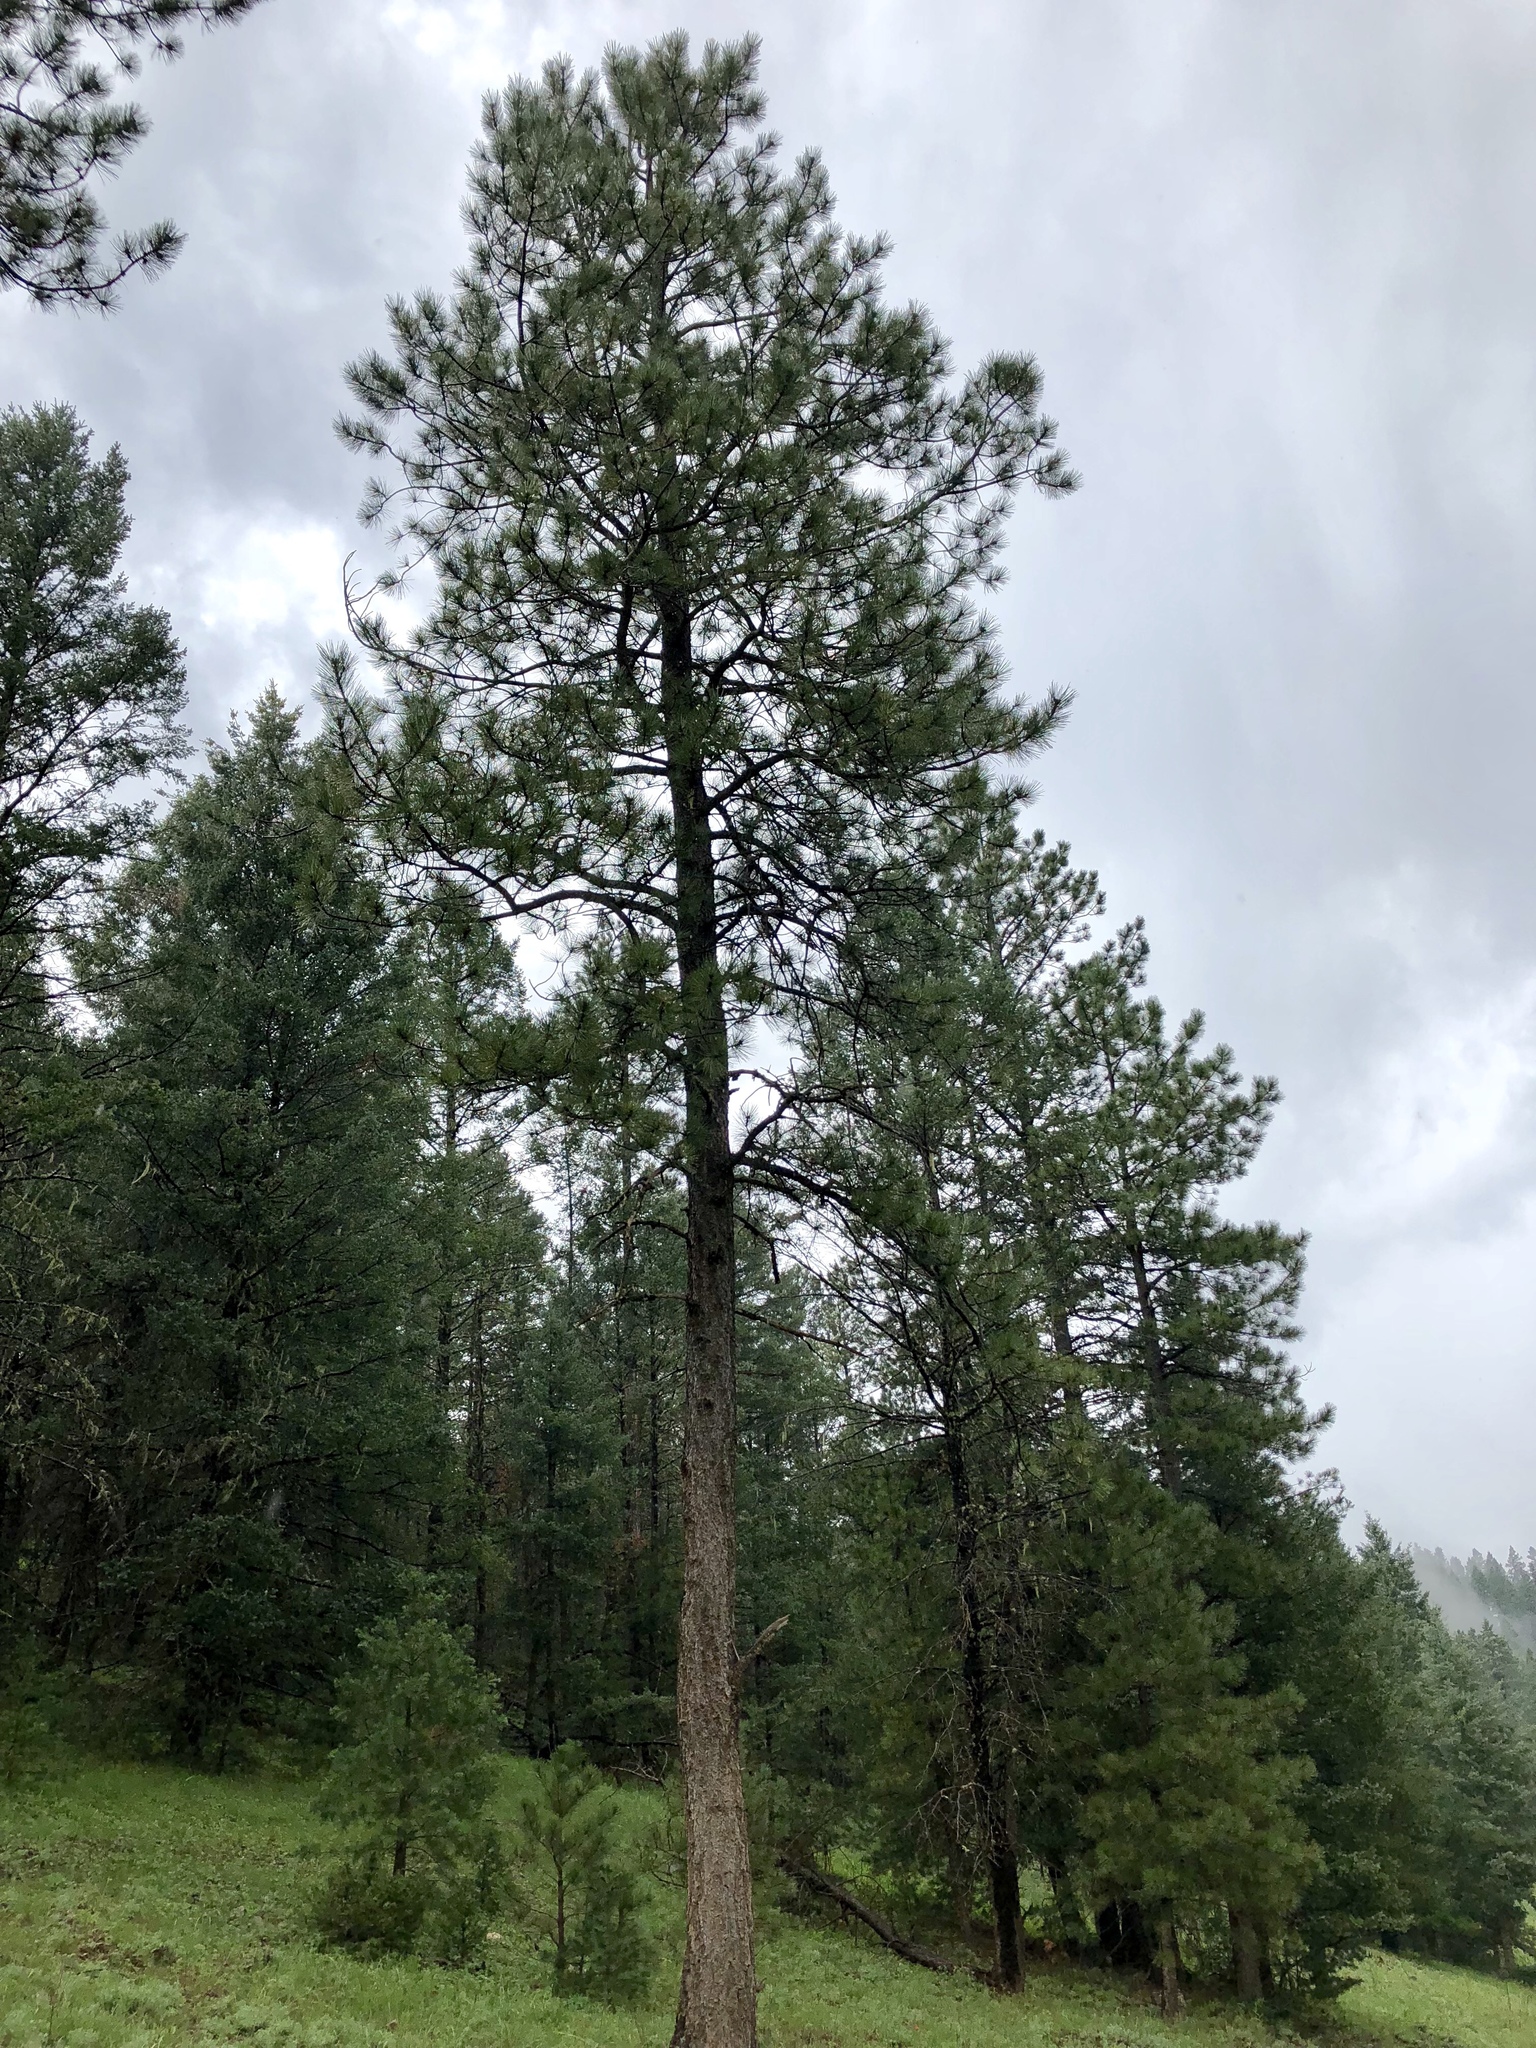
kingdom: Plantae
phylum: Tracheophyta
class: Pinopsida
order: Pinales
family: Pinaceae
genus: Pinus
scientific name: Pinus ponderosa
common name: Western yellow-pine
